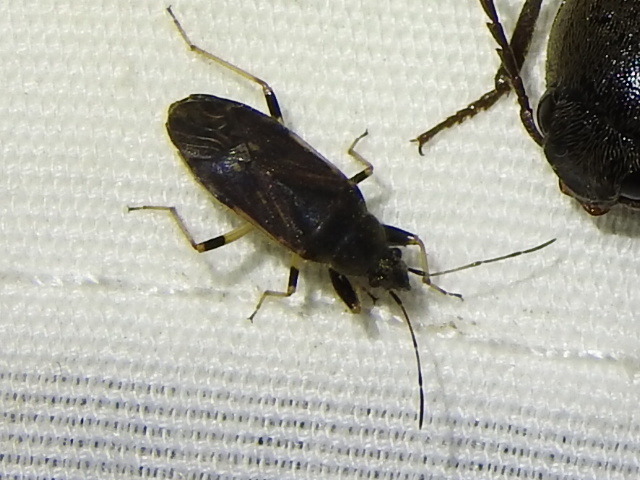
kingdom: Animalia
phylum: Arthropoda
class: Insecta
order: Hemiptera
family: Rhyparochromidae
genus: Perigenes
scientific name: Perigenes similis
